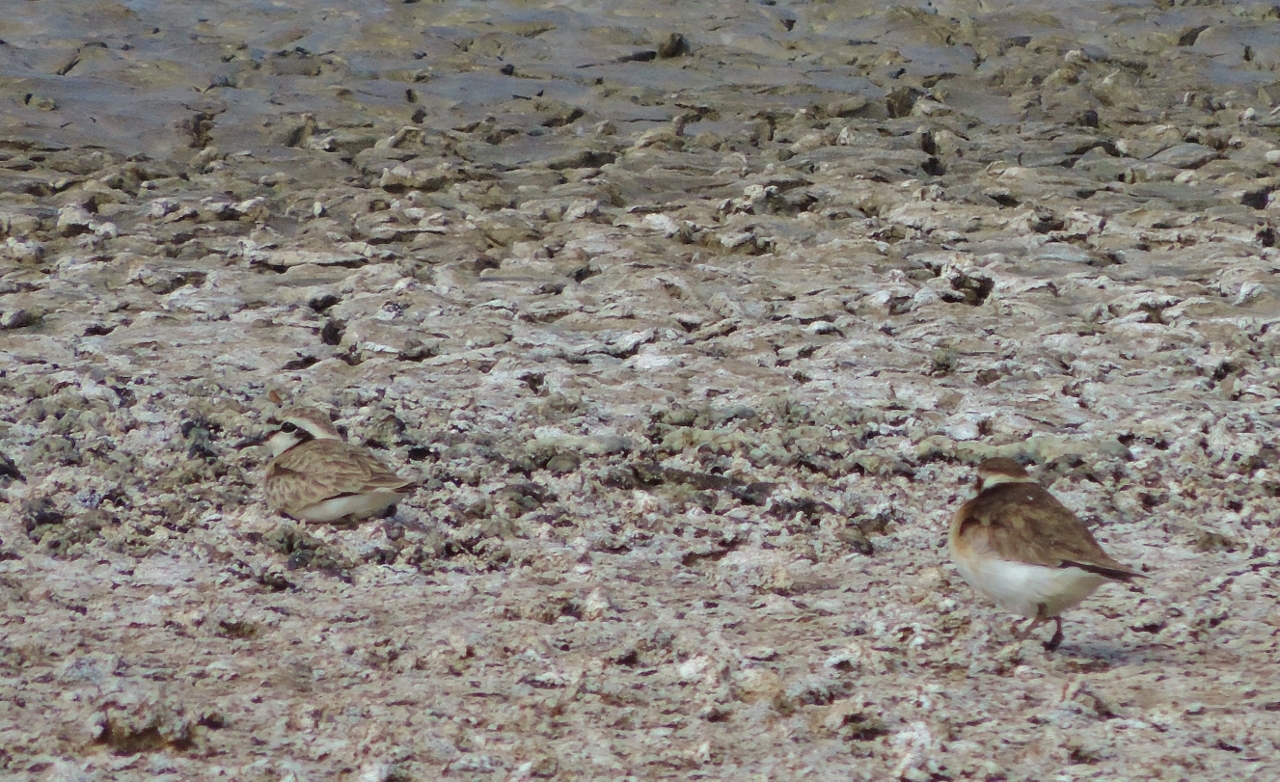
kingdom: Animalia
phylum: Chordata
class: Aves
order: Charadriiformes
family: Charadriidae
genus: Anarhynchus
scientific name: Anarhynchus
